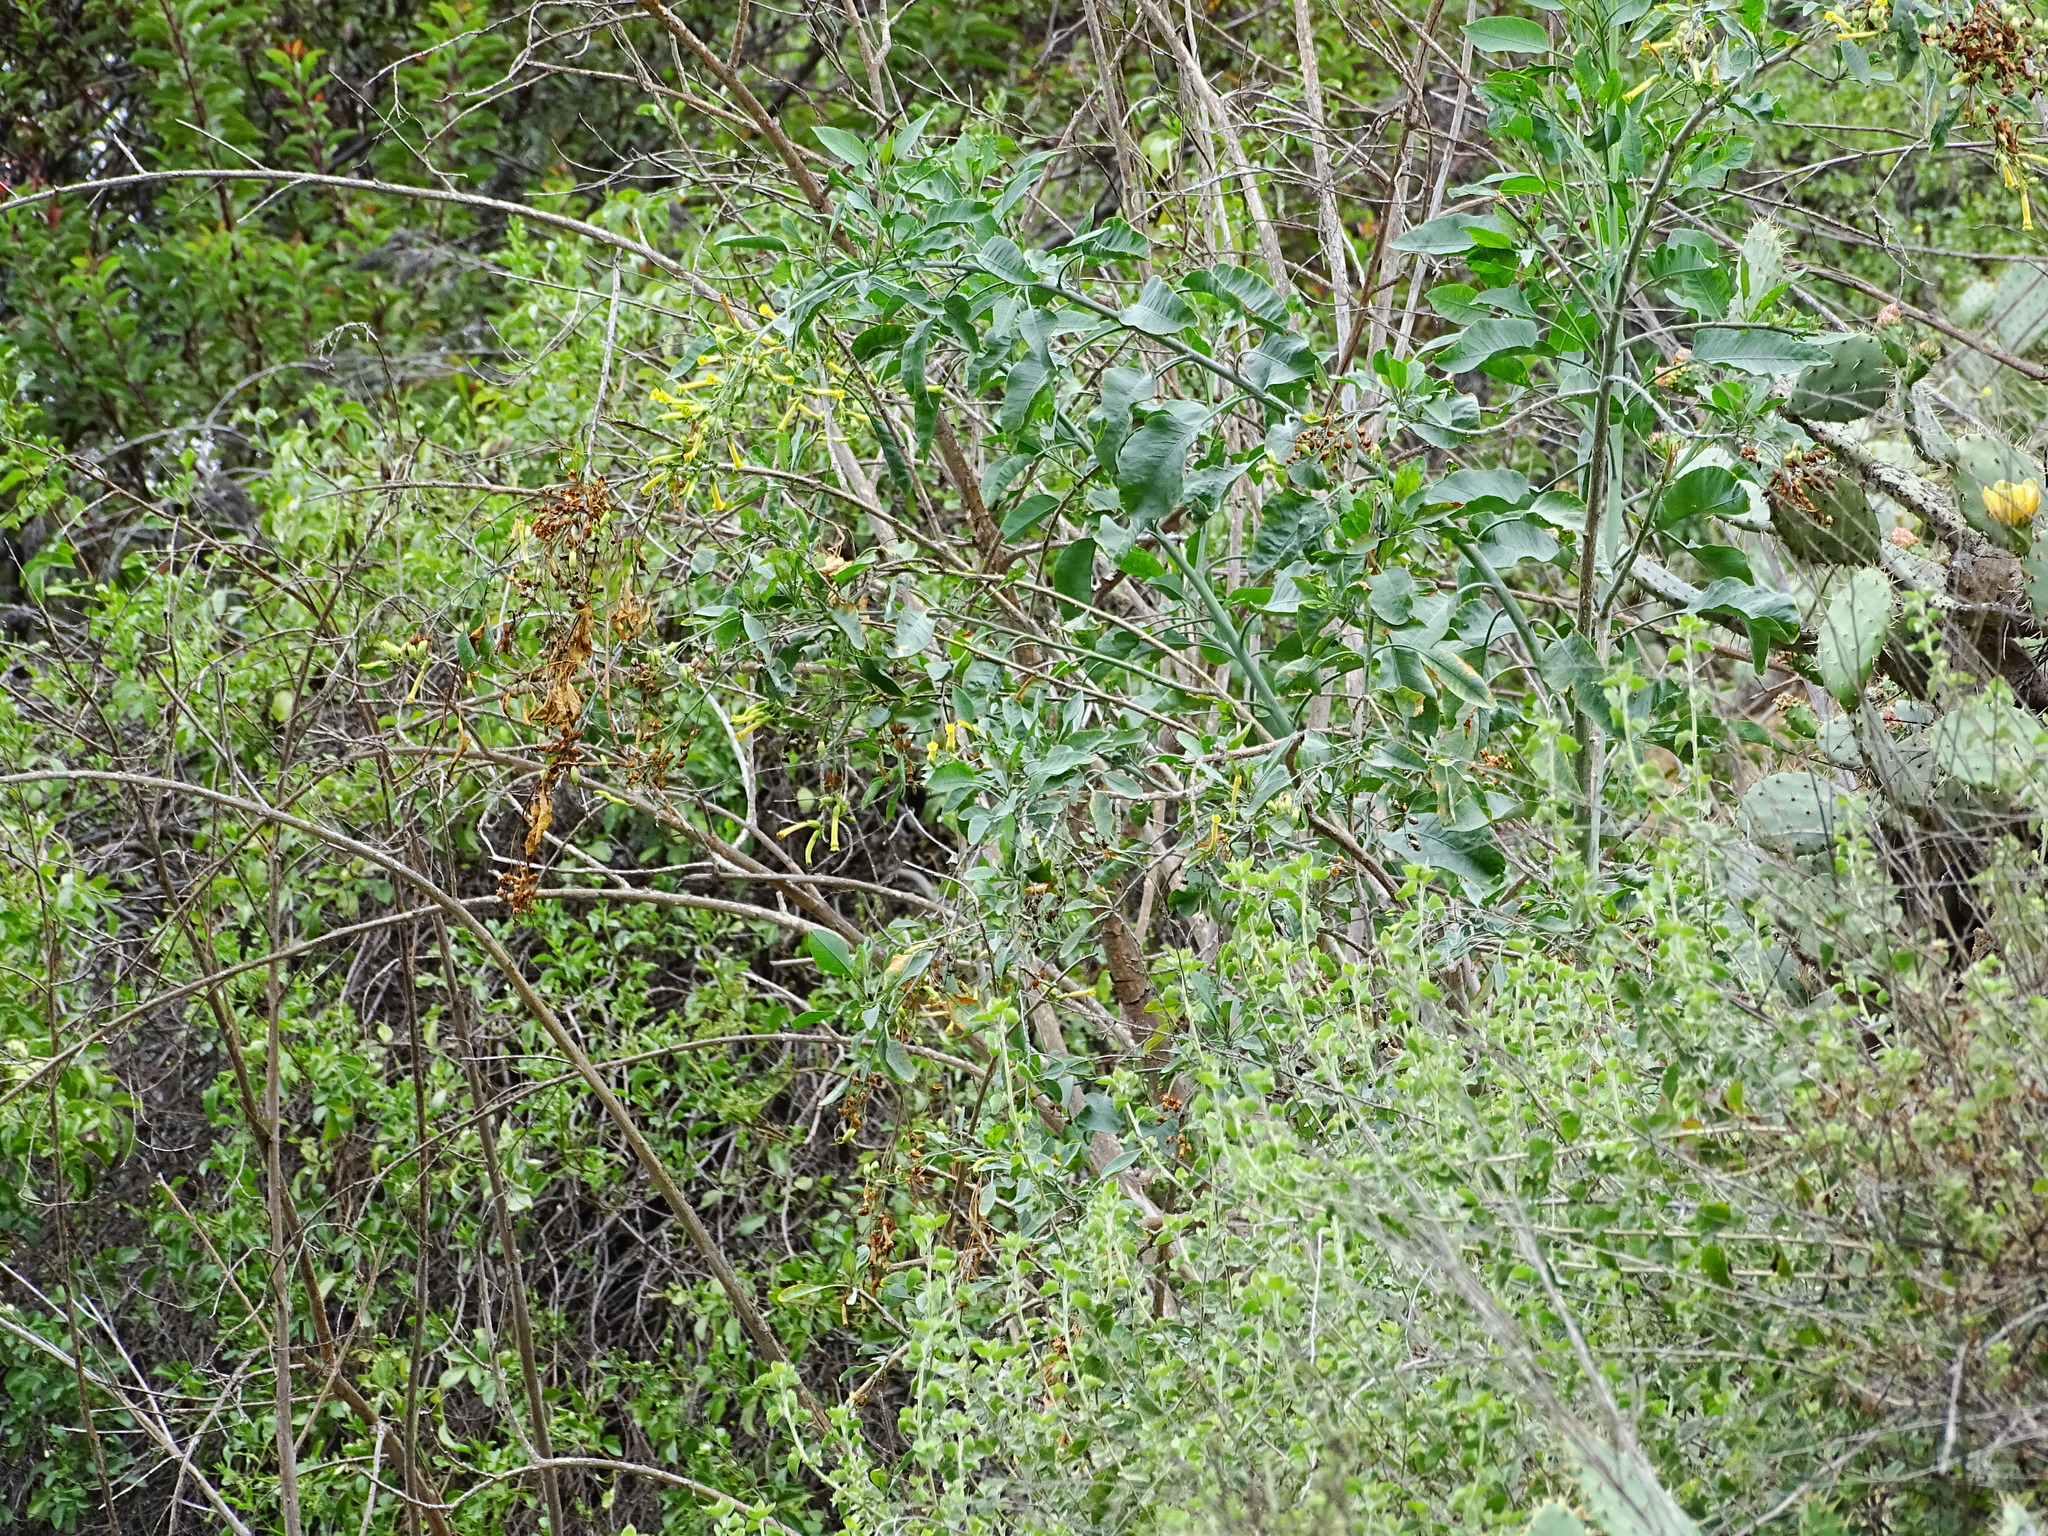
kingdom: Plantae
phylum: Tracheophyta
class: Magnoliopsida
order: Solanales
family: Solanaceae
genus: Nicotiana
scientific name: Nicotiana glauca
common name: Tree tobacco
